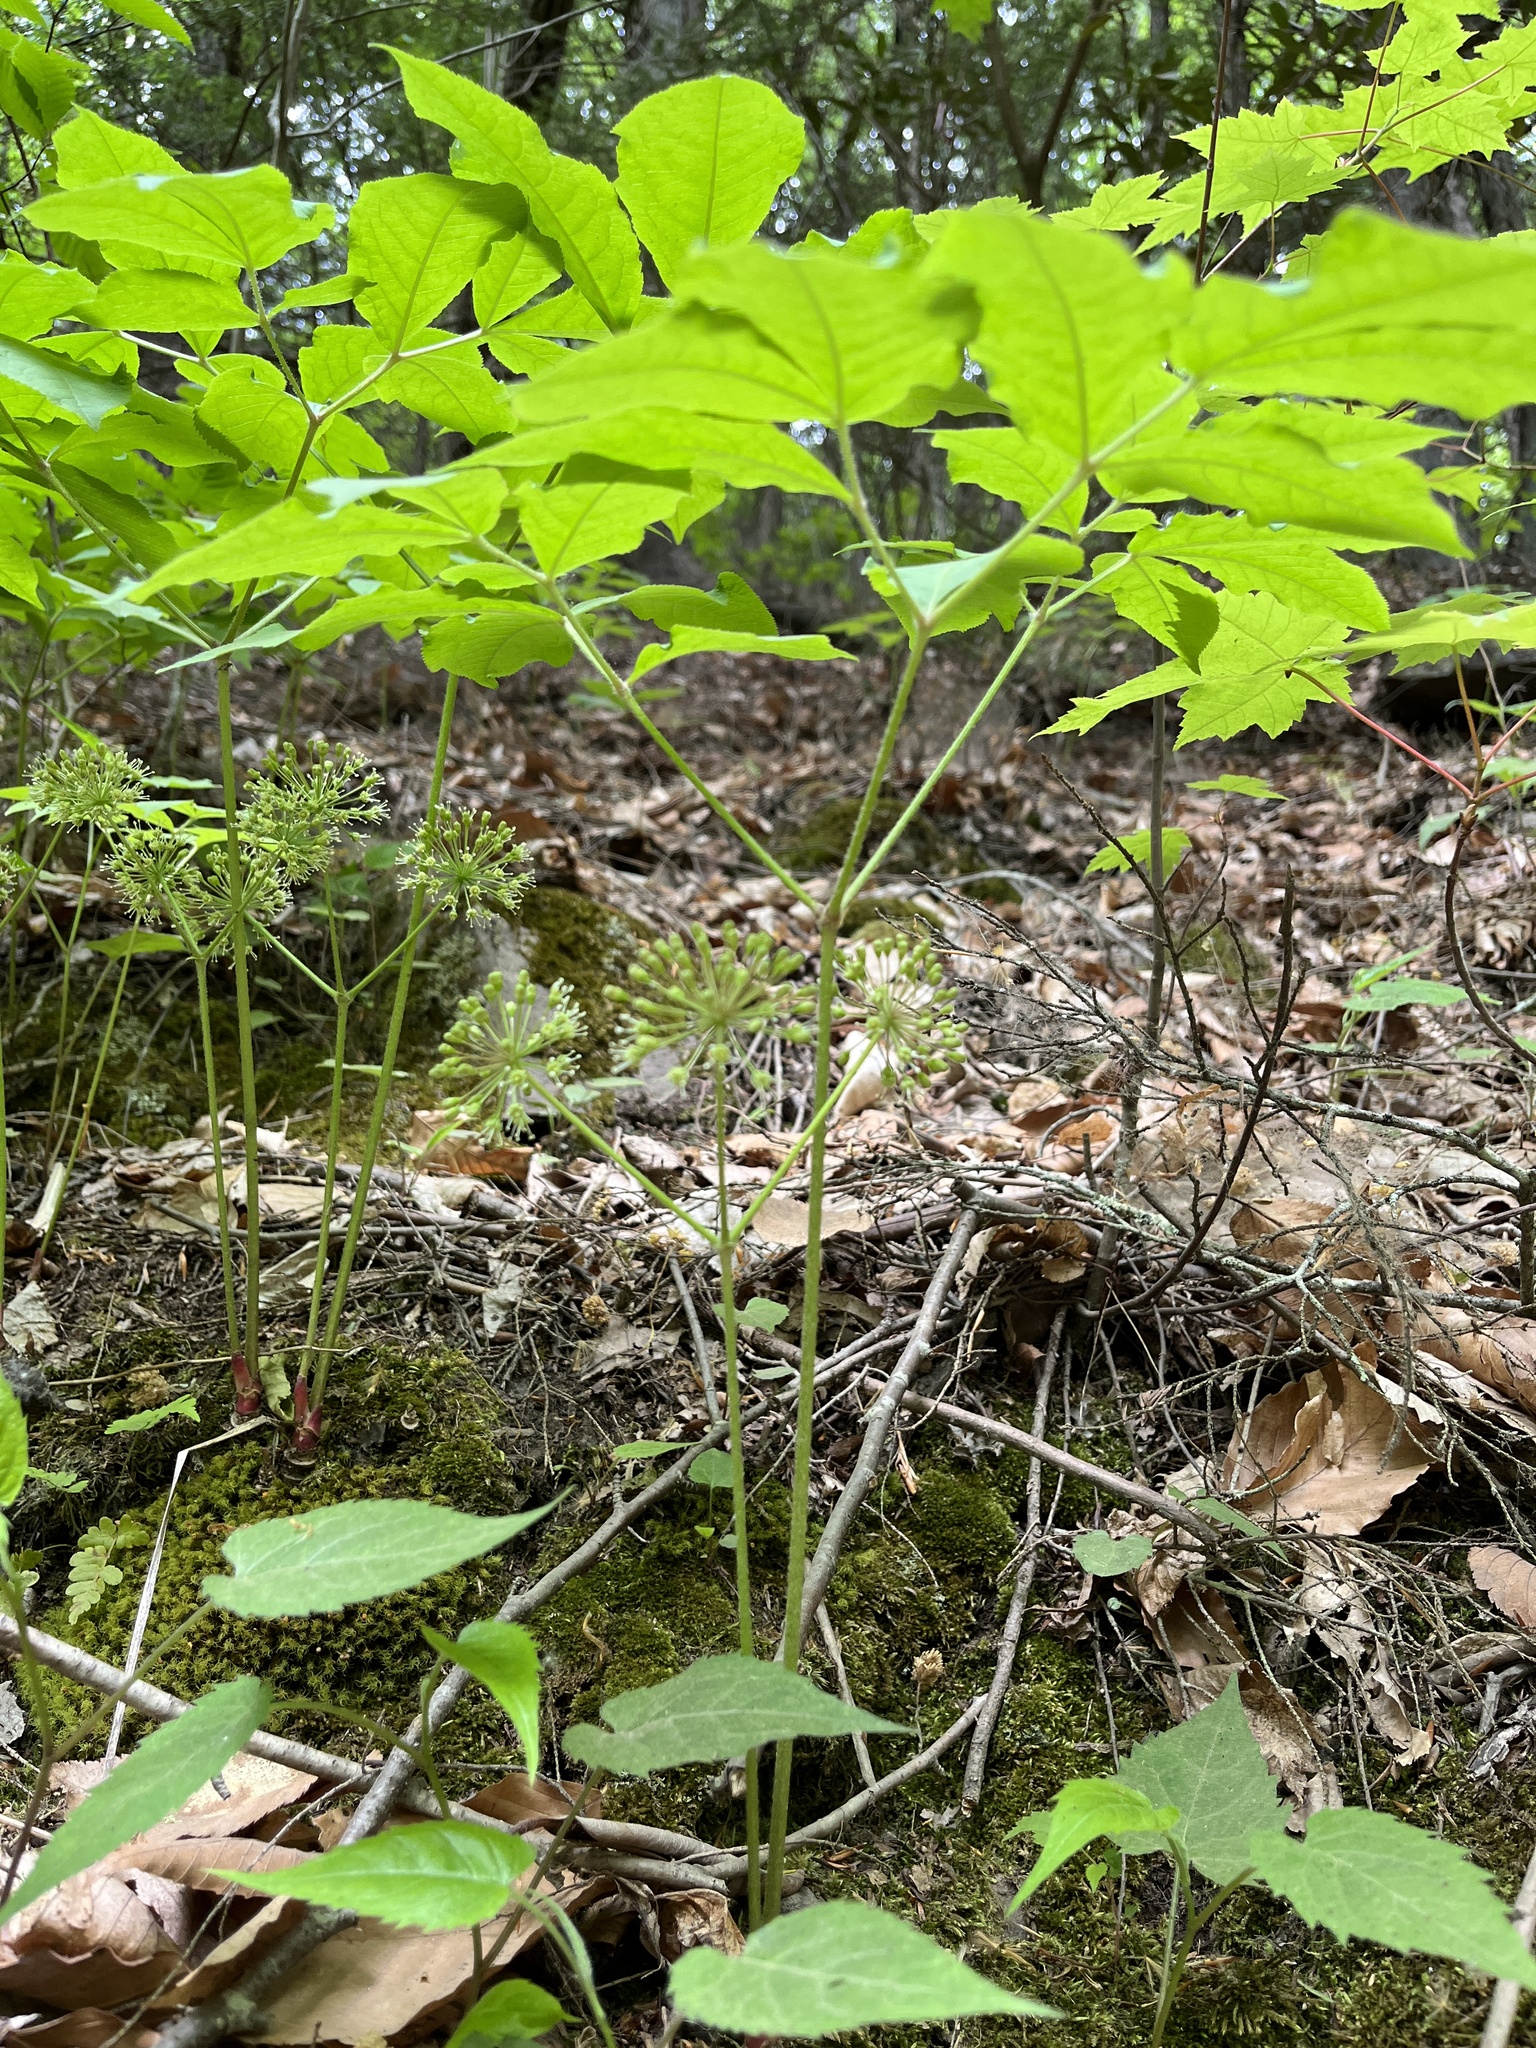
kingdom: Plantae
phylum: Tracheophyta
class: Magnoliopsida
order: Apiales
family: Araliaceae
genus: Aralia
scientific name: Aralia nudicaulis
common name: Wild sarsaparilla
